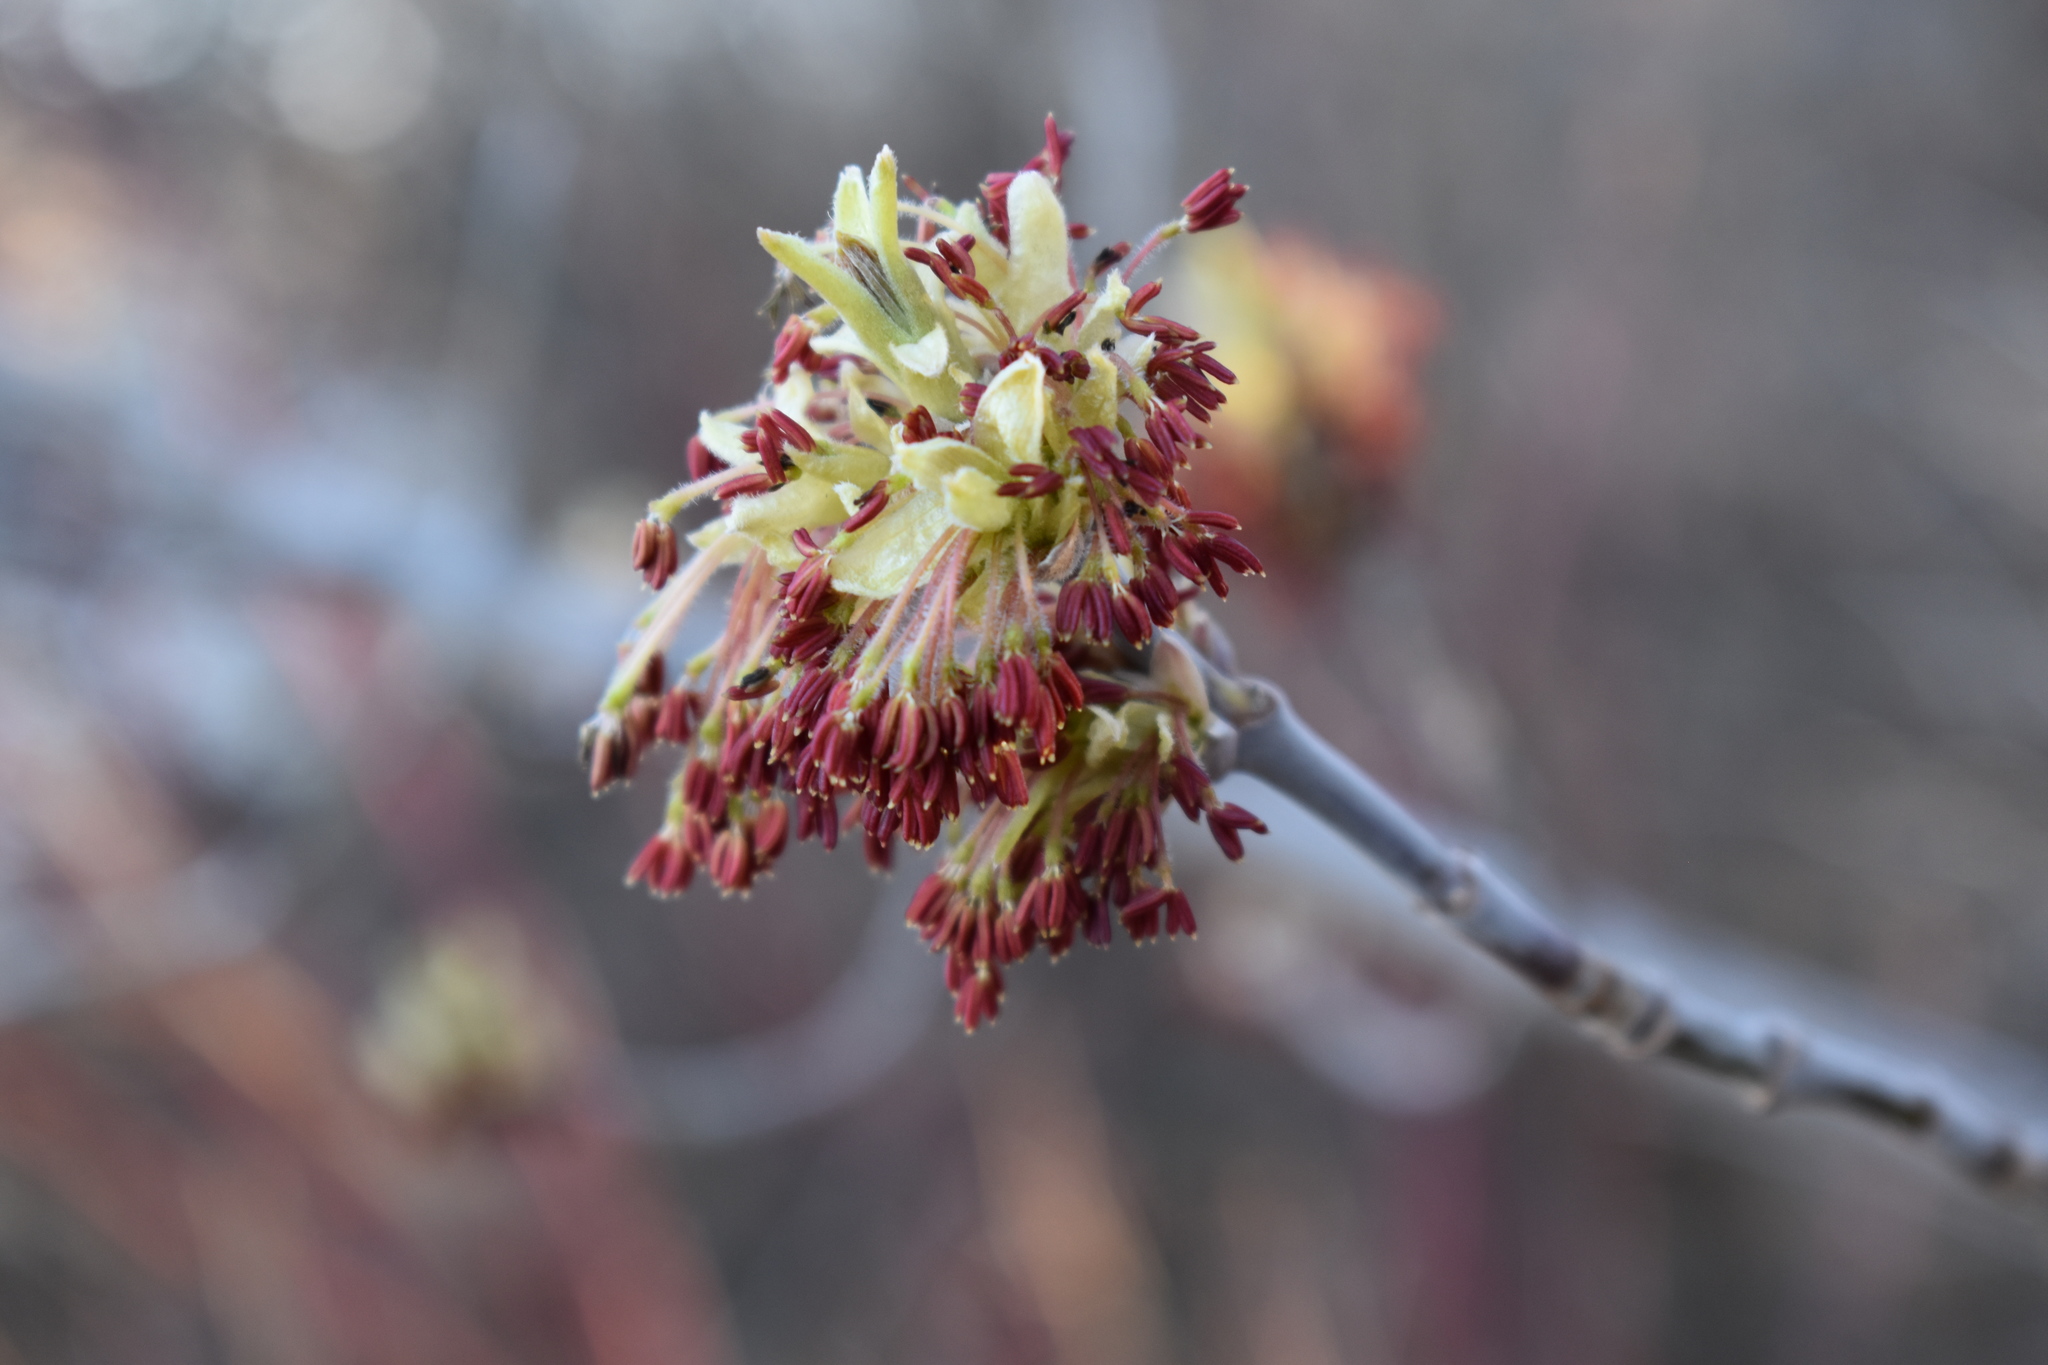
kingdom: Plantae
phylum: Tracheophyta
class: Magnoliopsida
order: Sapindales
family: Sapindaceae
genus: Acer
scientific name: Acer negundo
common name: Ashleaf maple
